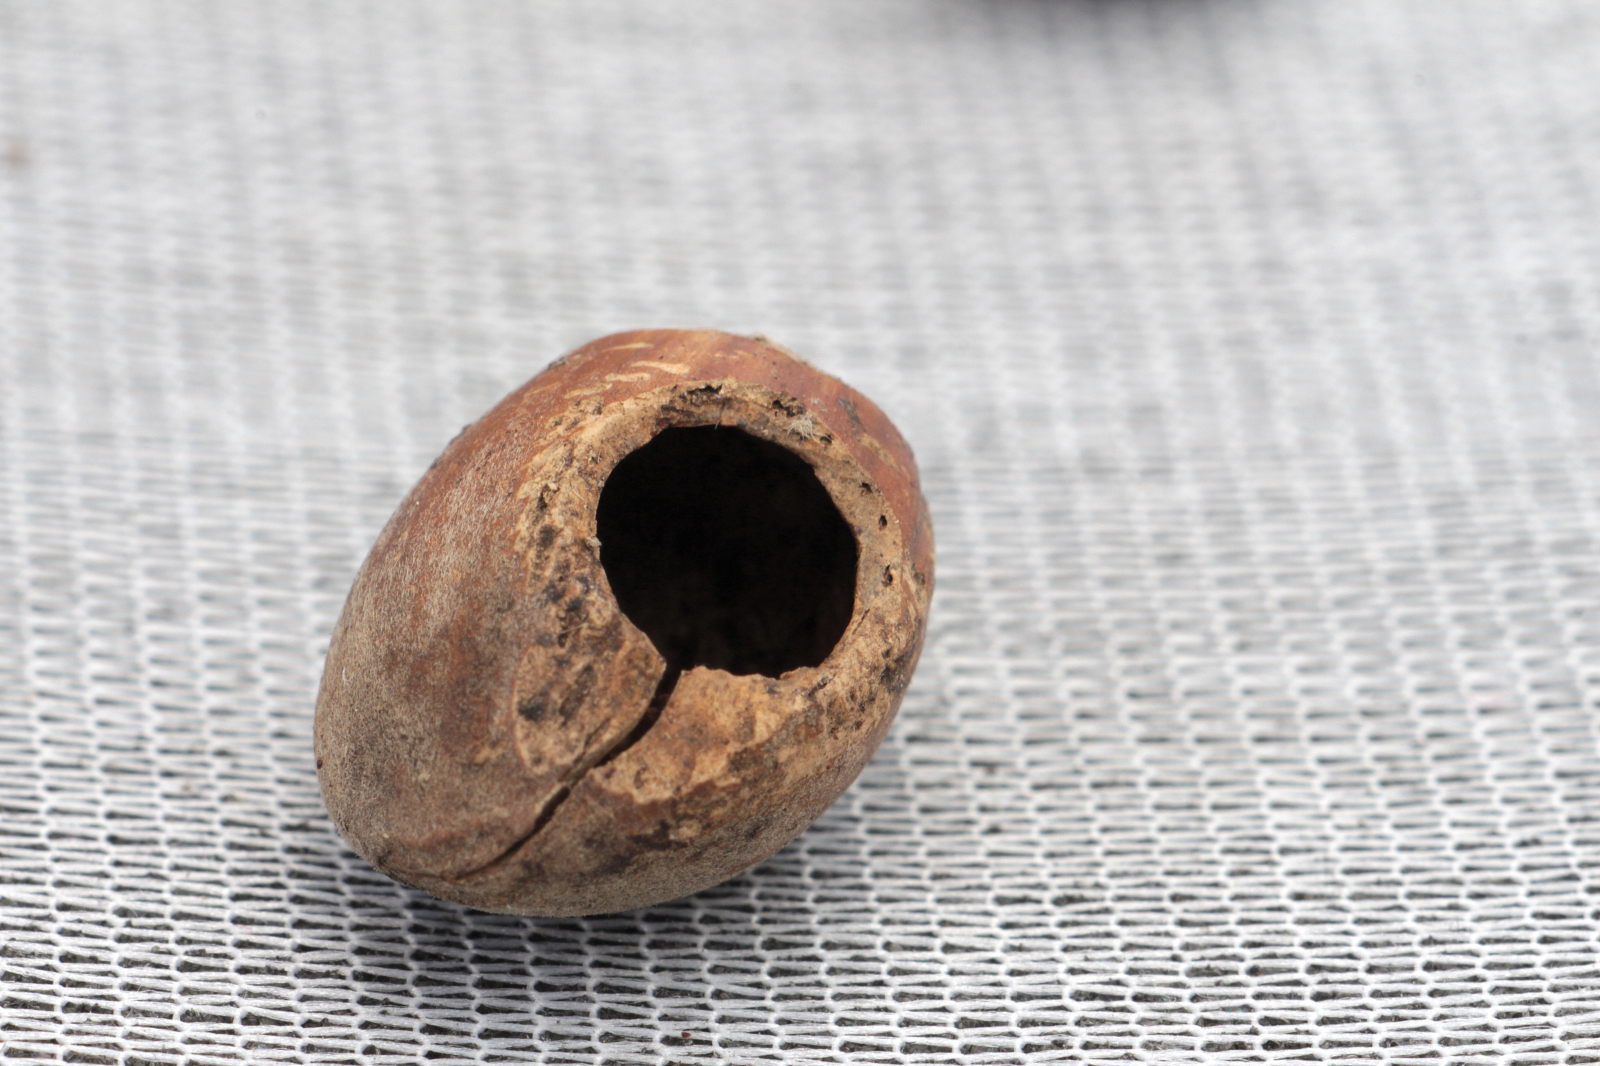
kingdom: Animalia
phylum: Chordata
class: Mammalia
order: Rodentia
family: Gliridae
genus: Muscardinus
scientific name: Muscardinus avellanarius
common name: Hazel dormouse
